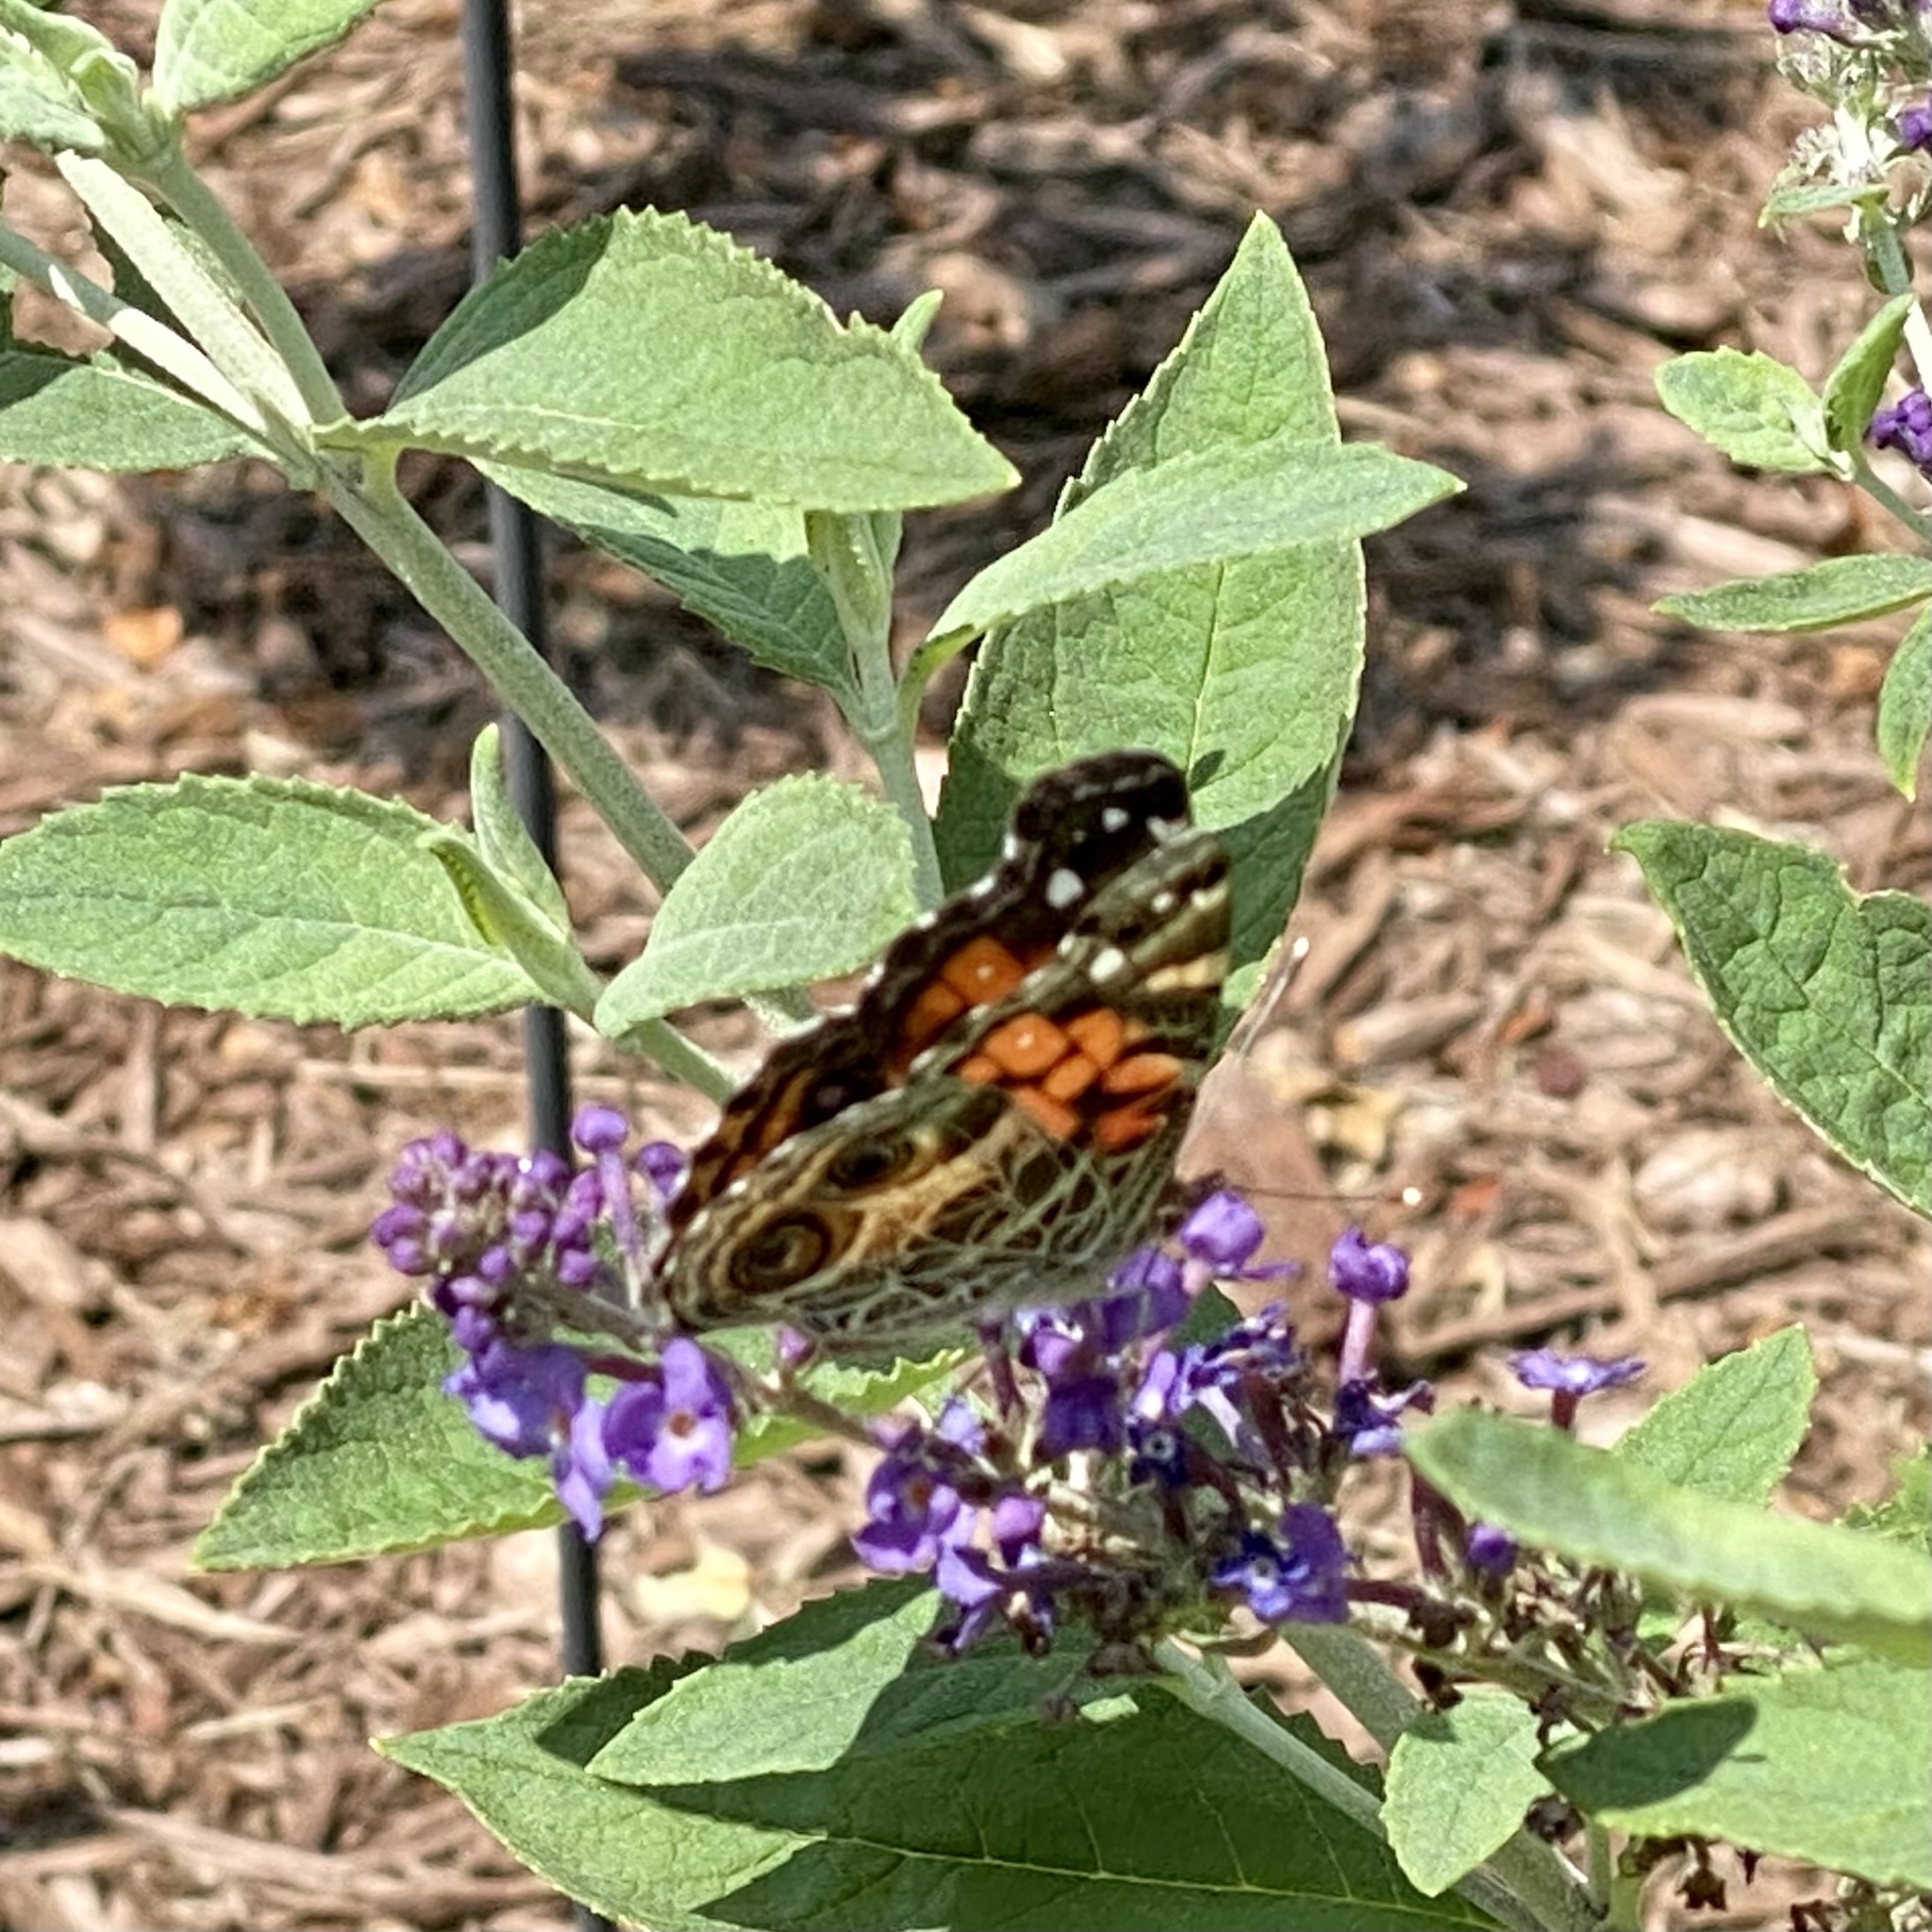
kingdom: Animalia
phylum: Arthropoda
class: Insecta
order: Lepidoptera
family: Nymphalidae
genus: Vanessa
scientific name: Vanessa virginiensis
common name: American lady
